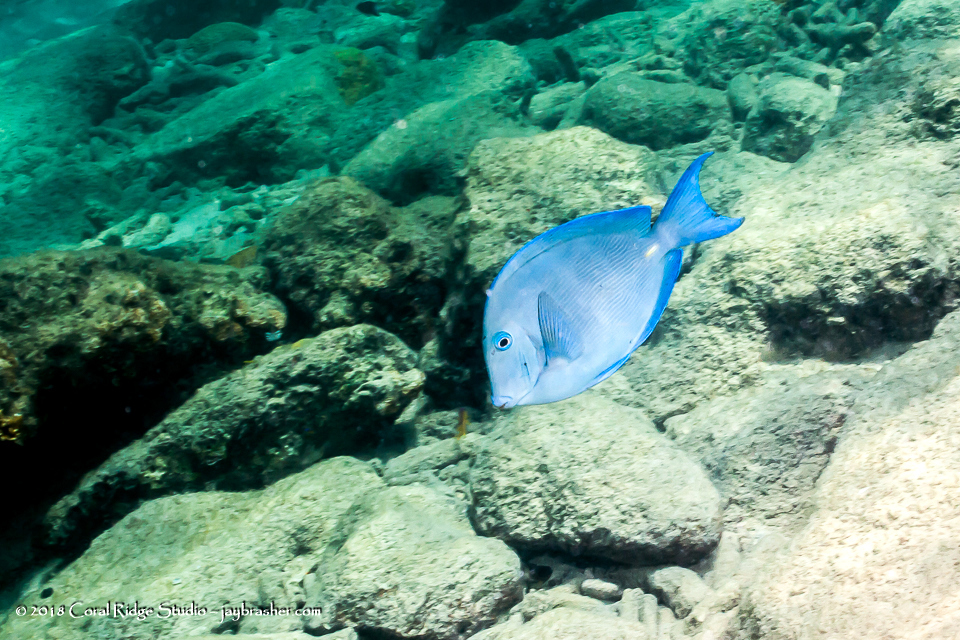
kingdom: Animalia
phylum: Chordata
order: Perciformes
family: Acanthuridae
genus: Acanthurus
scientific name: Acanthurus coeruleus
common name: Blue tang
